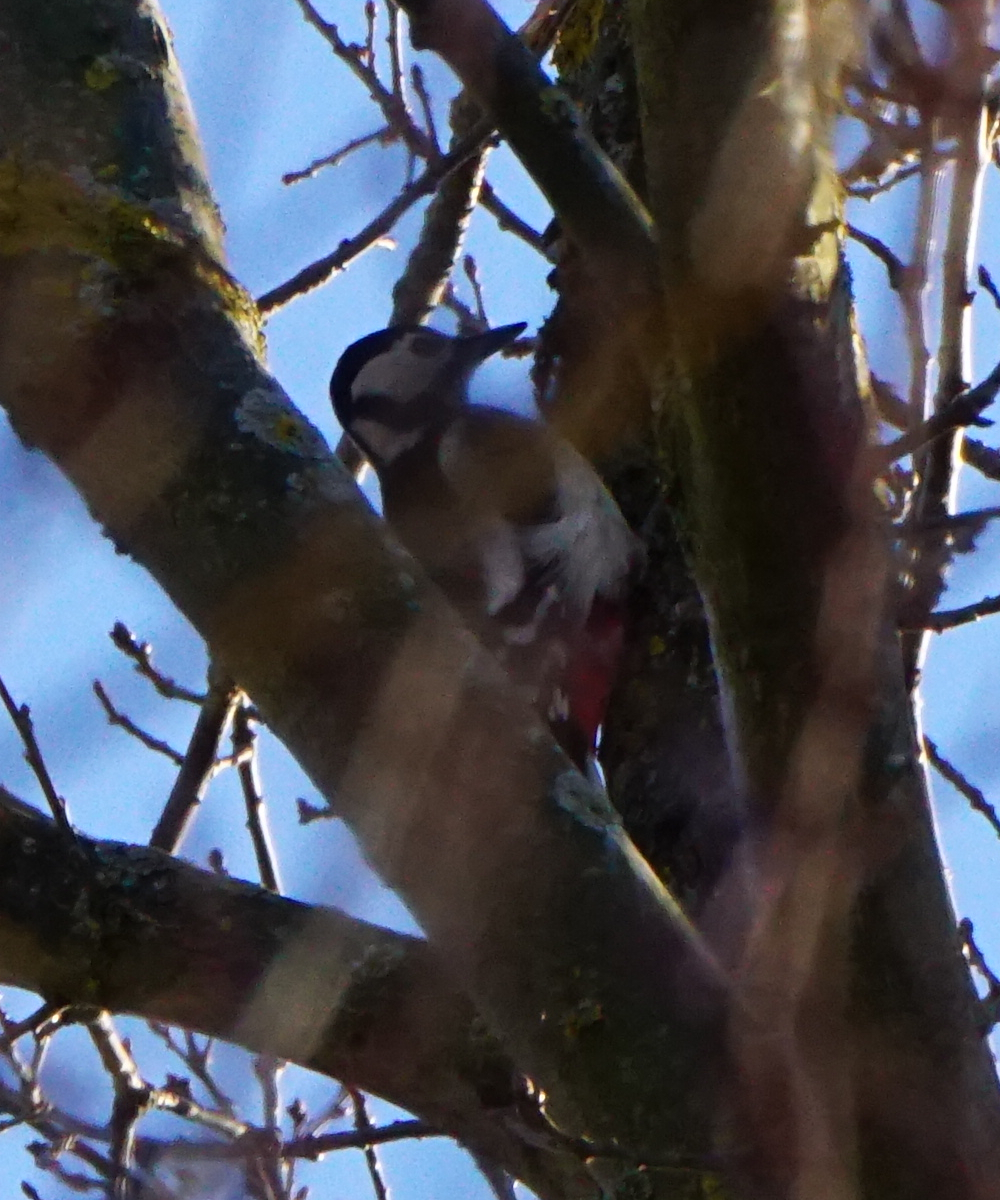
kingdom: Animalia
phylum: Chordata
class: Aves
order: Piciformes
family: Picidae
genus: Dendrocopos
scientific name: Dendrocopos major
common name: Great spotted woodpecker
